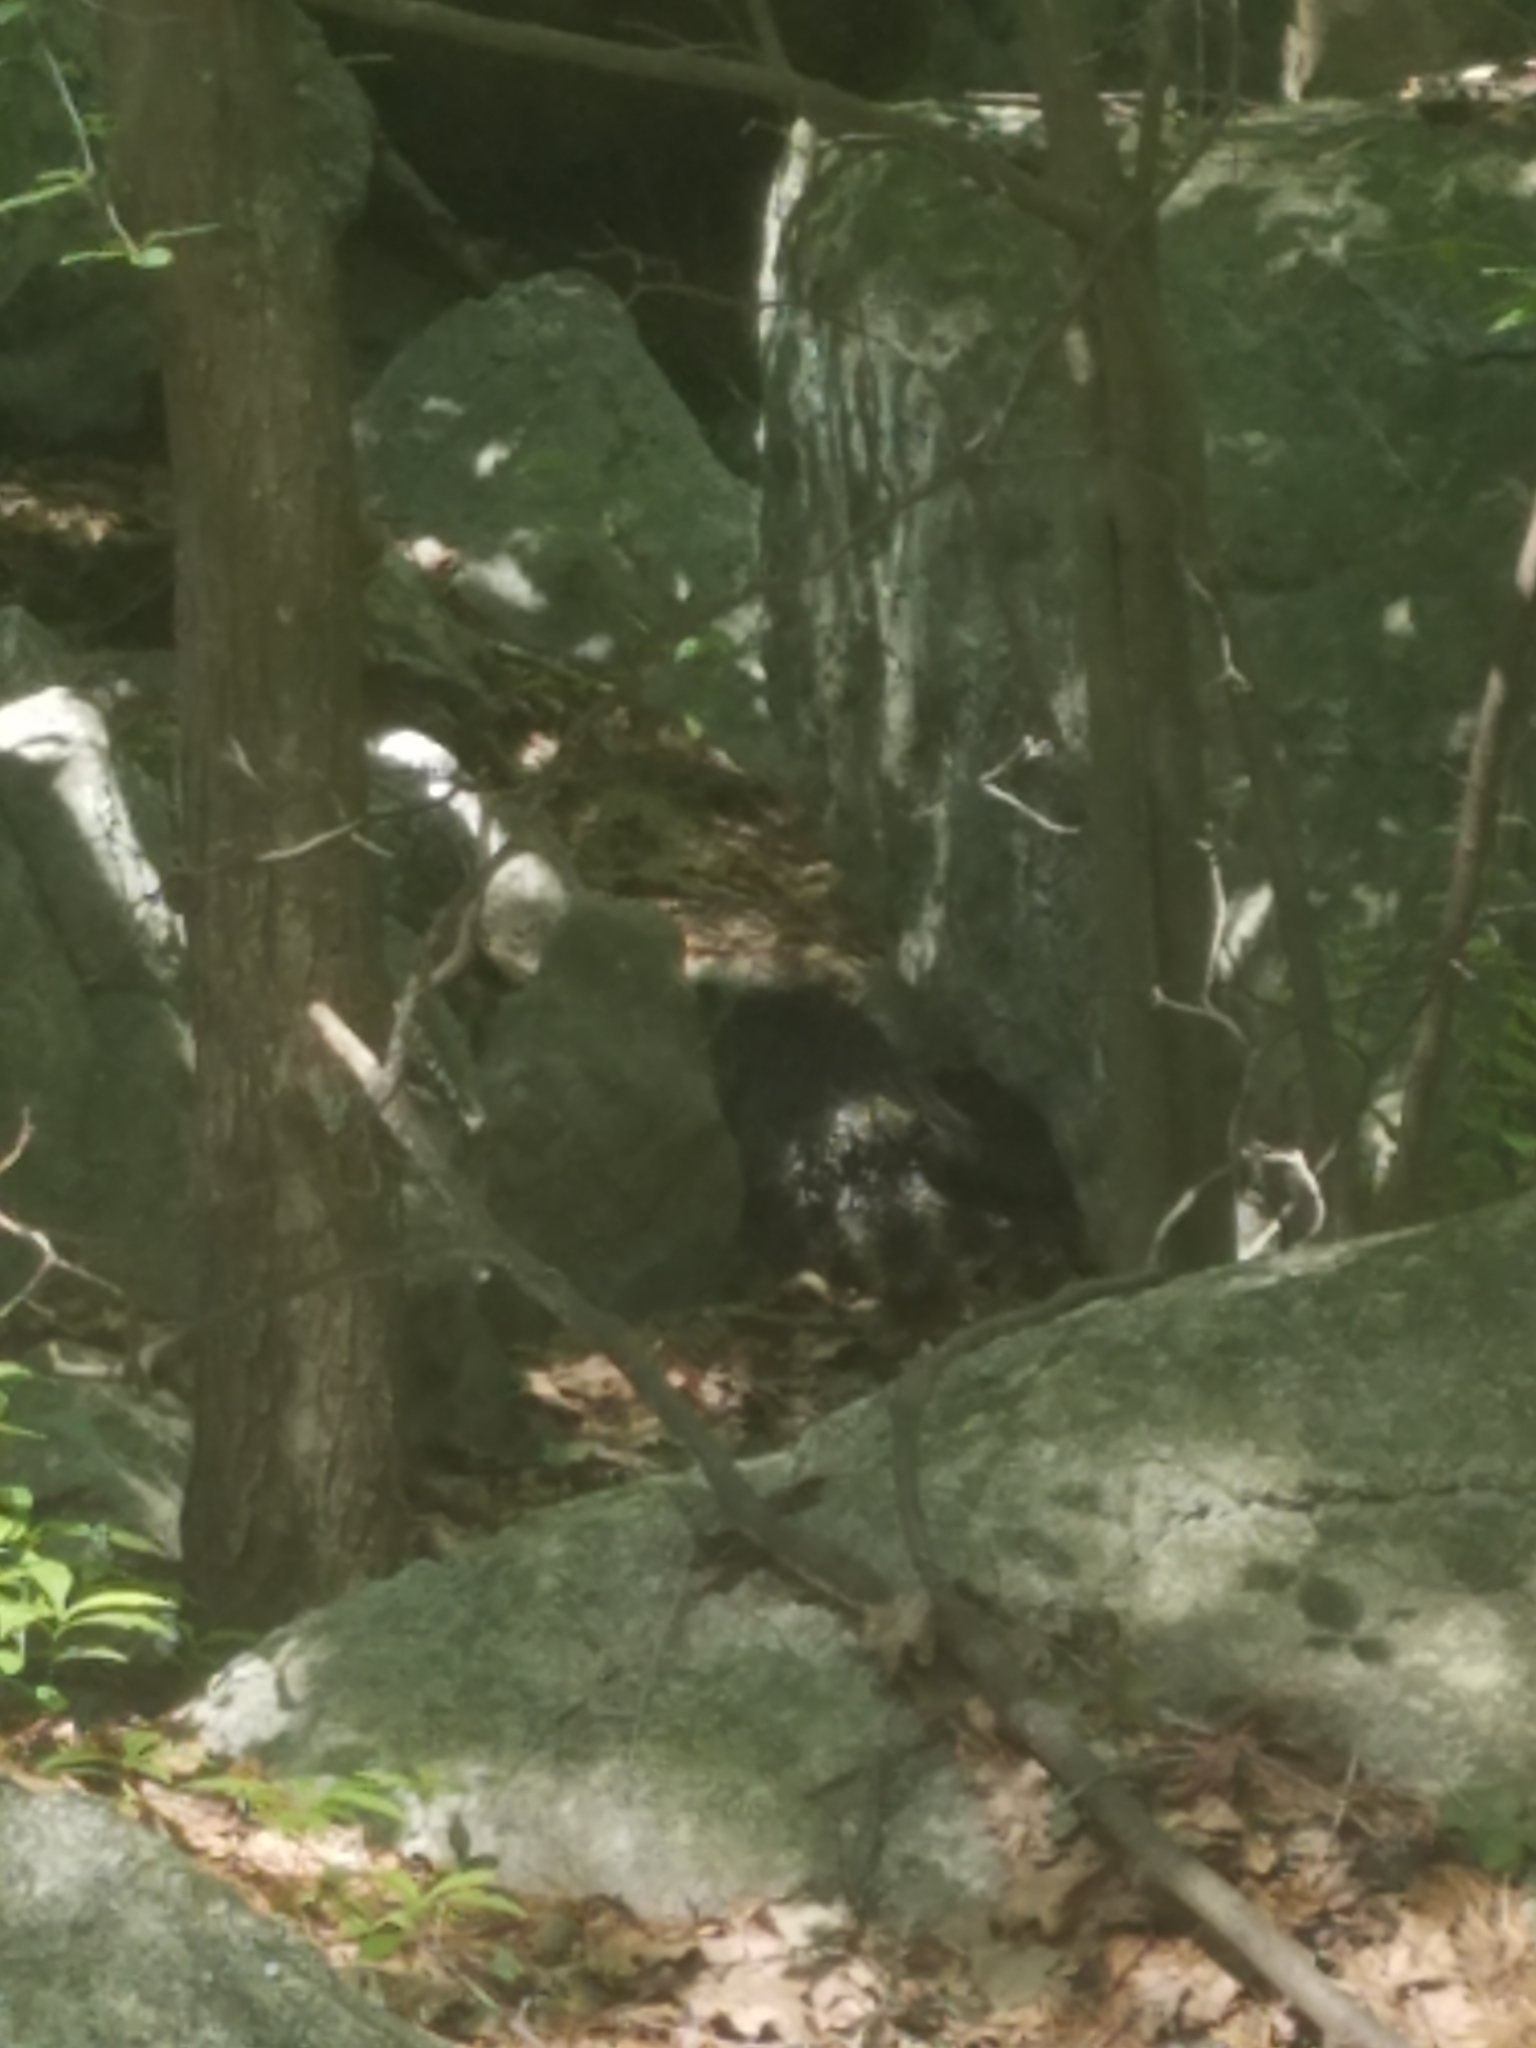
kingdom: Animalia
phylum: Chordata
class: Mammalia
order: Rodentia
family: Erethizontidae
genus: Erethizon
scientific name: Erethizon dorsatus
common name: North american porcupine
